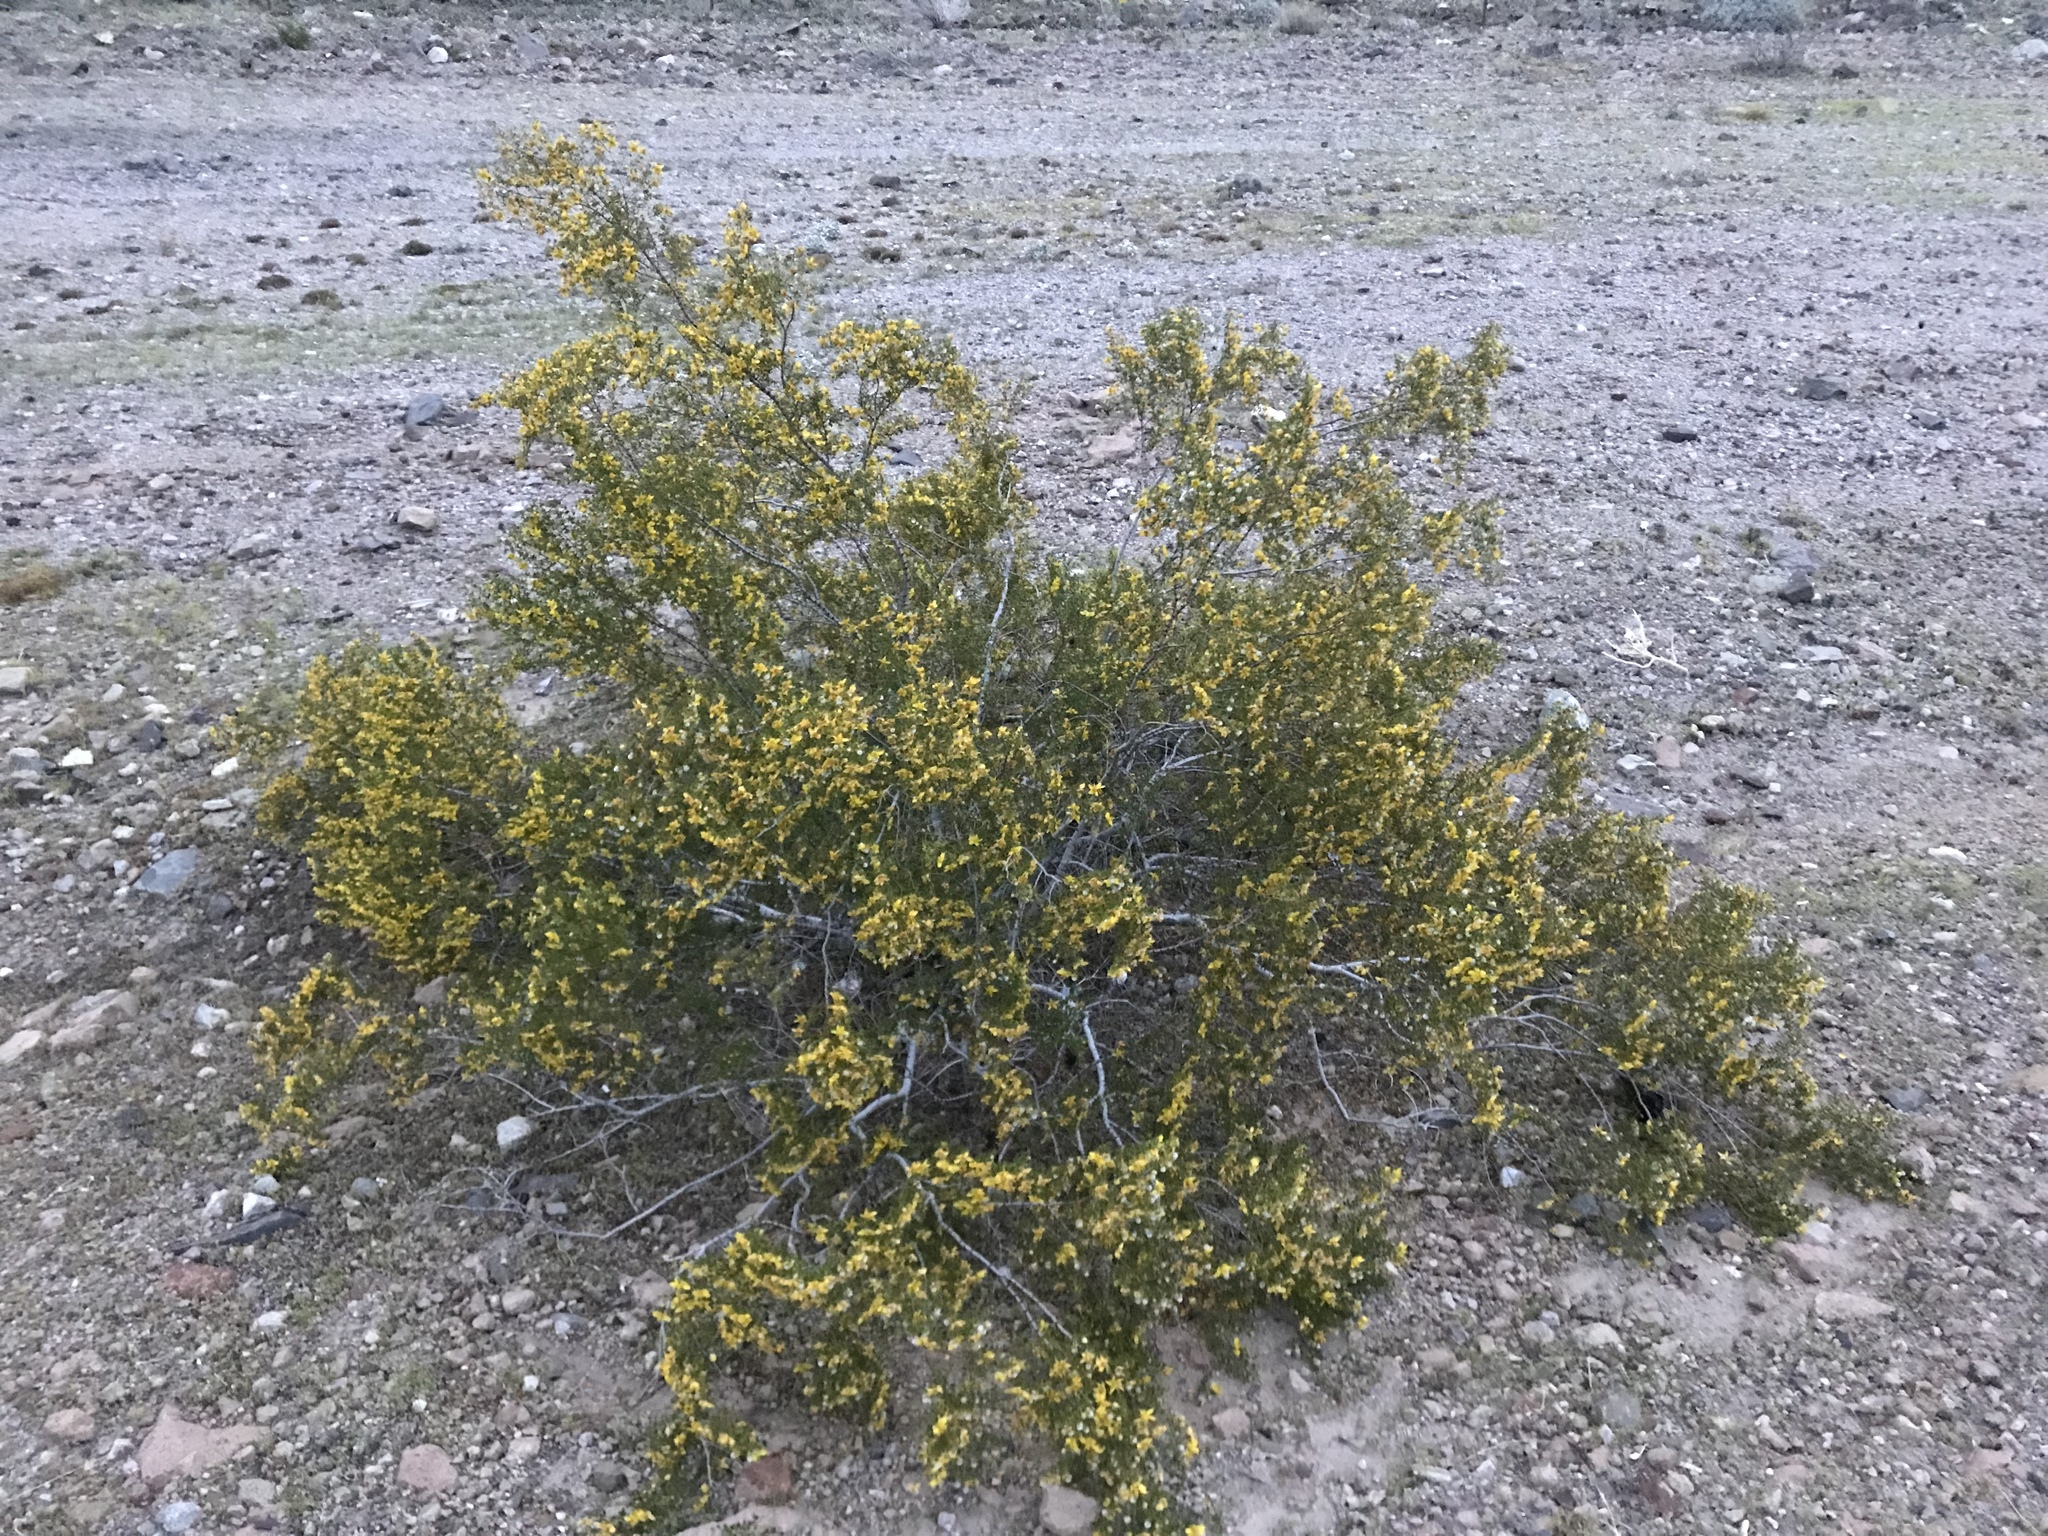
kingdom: Plantae
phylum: Tracheophyta
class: Magnoliopsida
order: Zygophyllales
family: Zygophyllaceae
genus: Larrea
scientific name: Larrea tridentata
